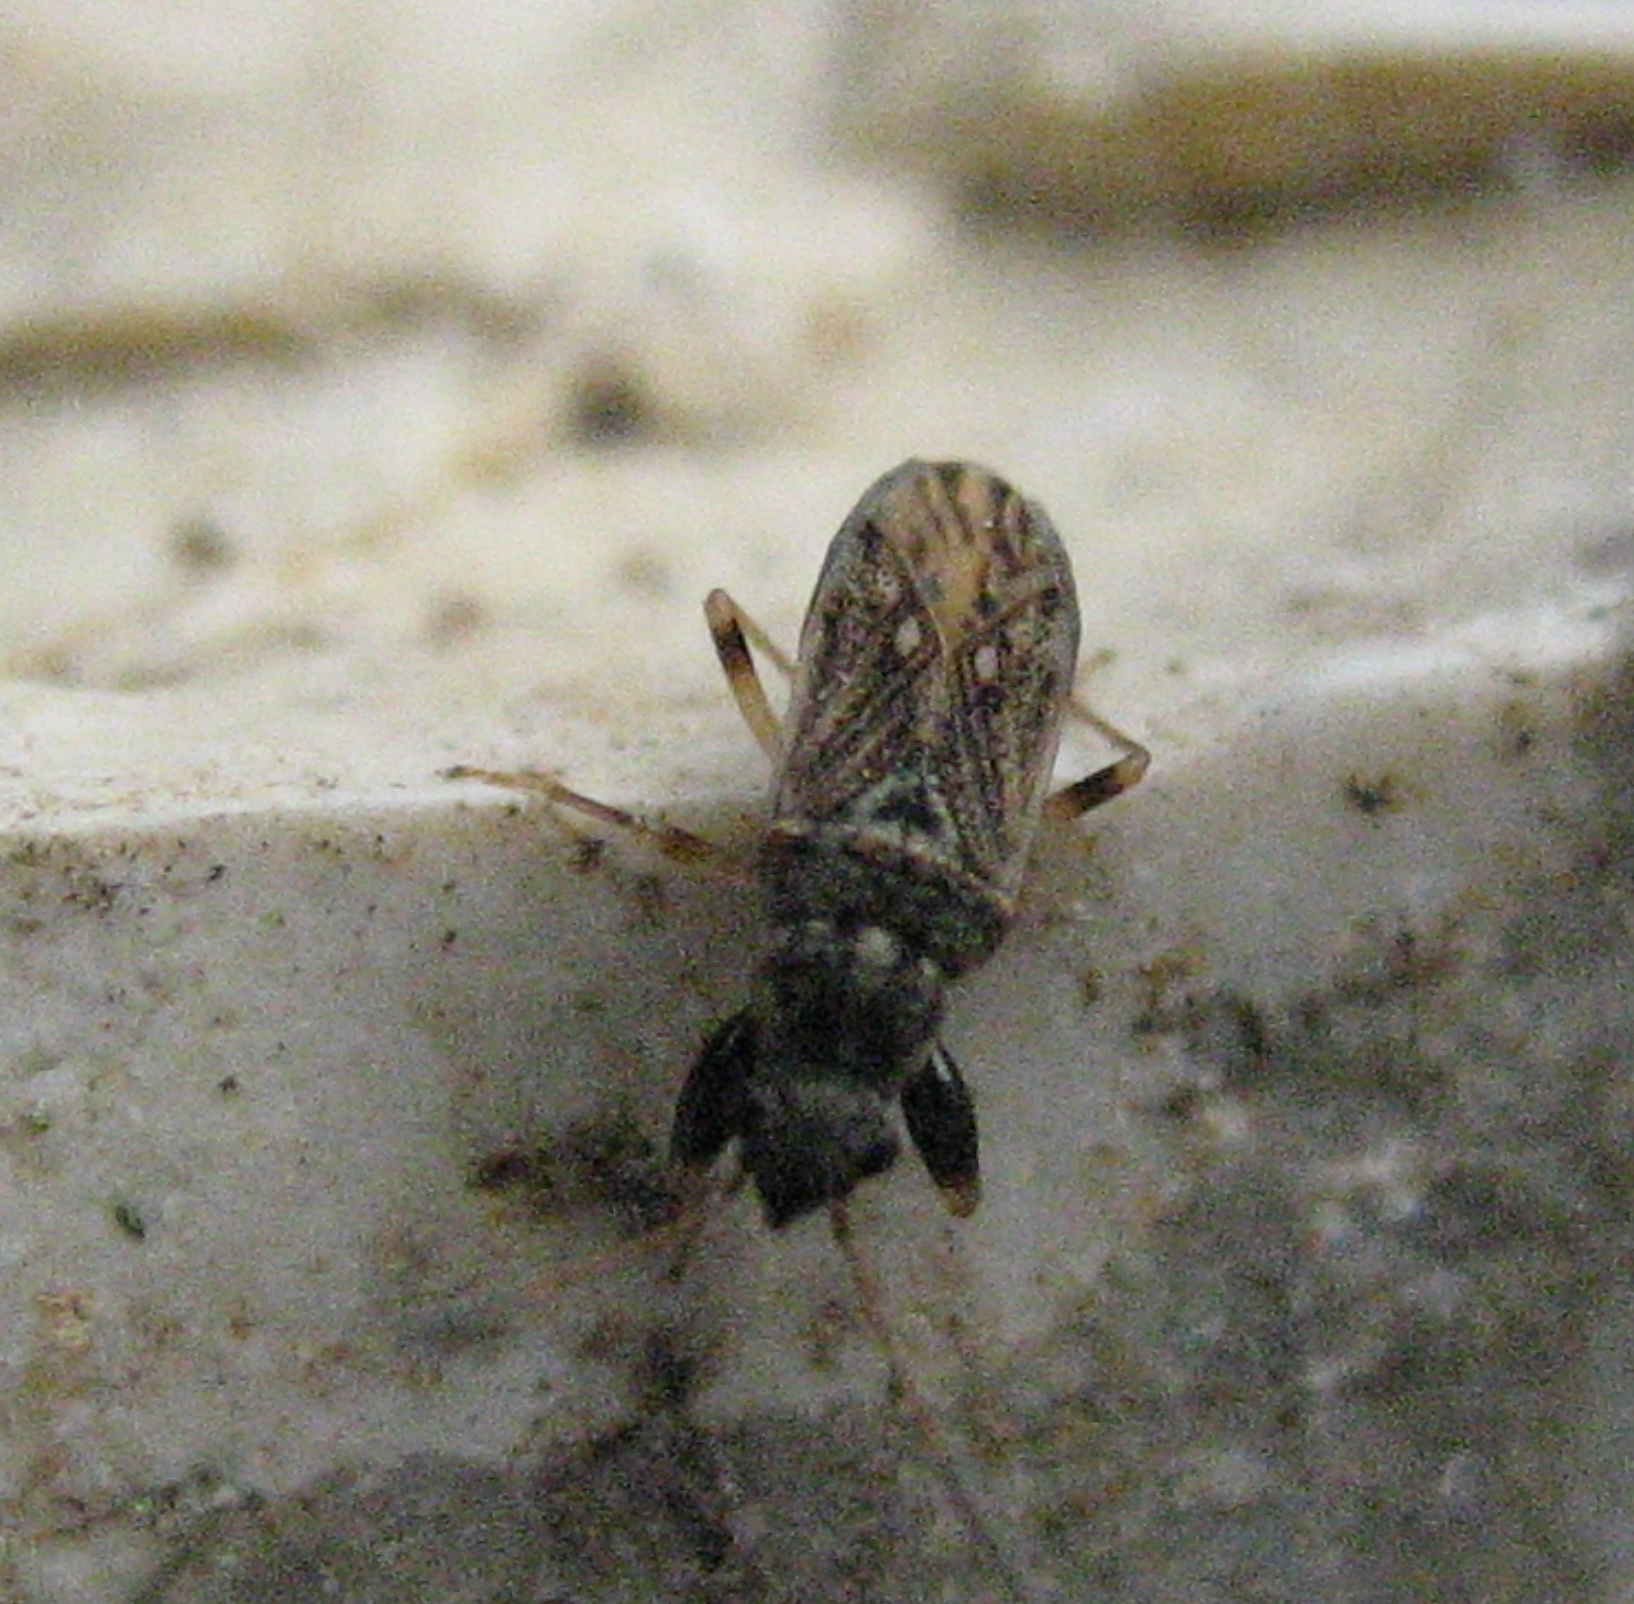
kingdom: Animalia
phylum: Arthropoda
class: Insecta
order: Hemiptera
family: Rhyparochromidae
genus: Pseudopachybrachius
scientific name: Pseudopachybrachius basalis
